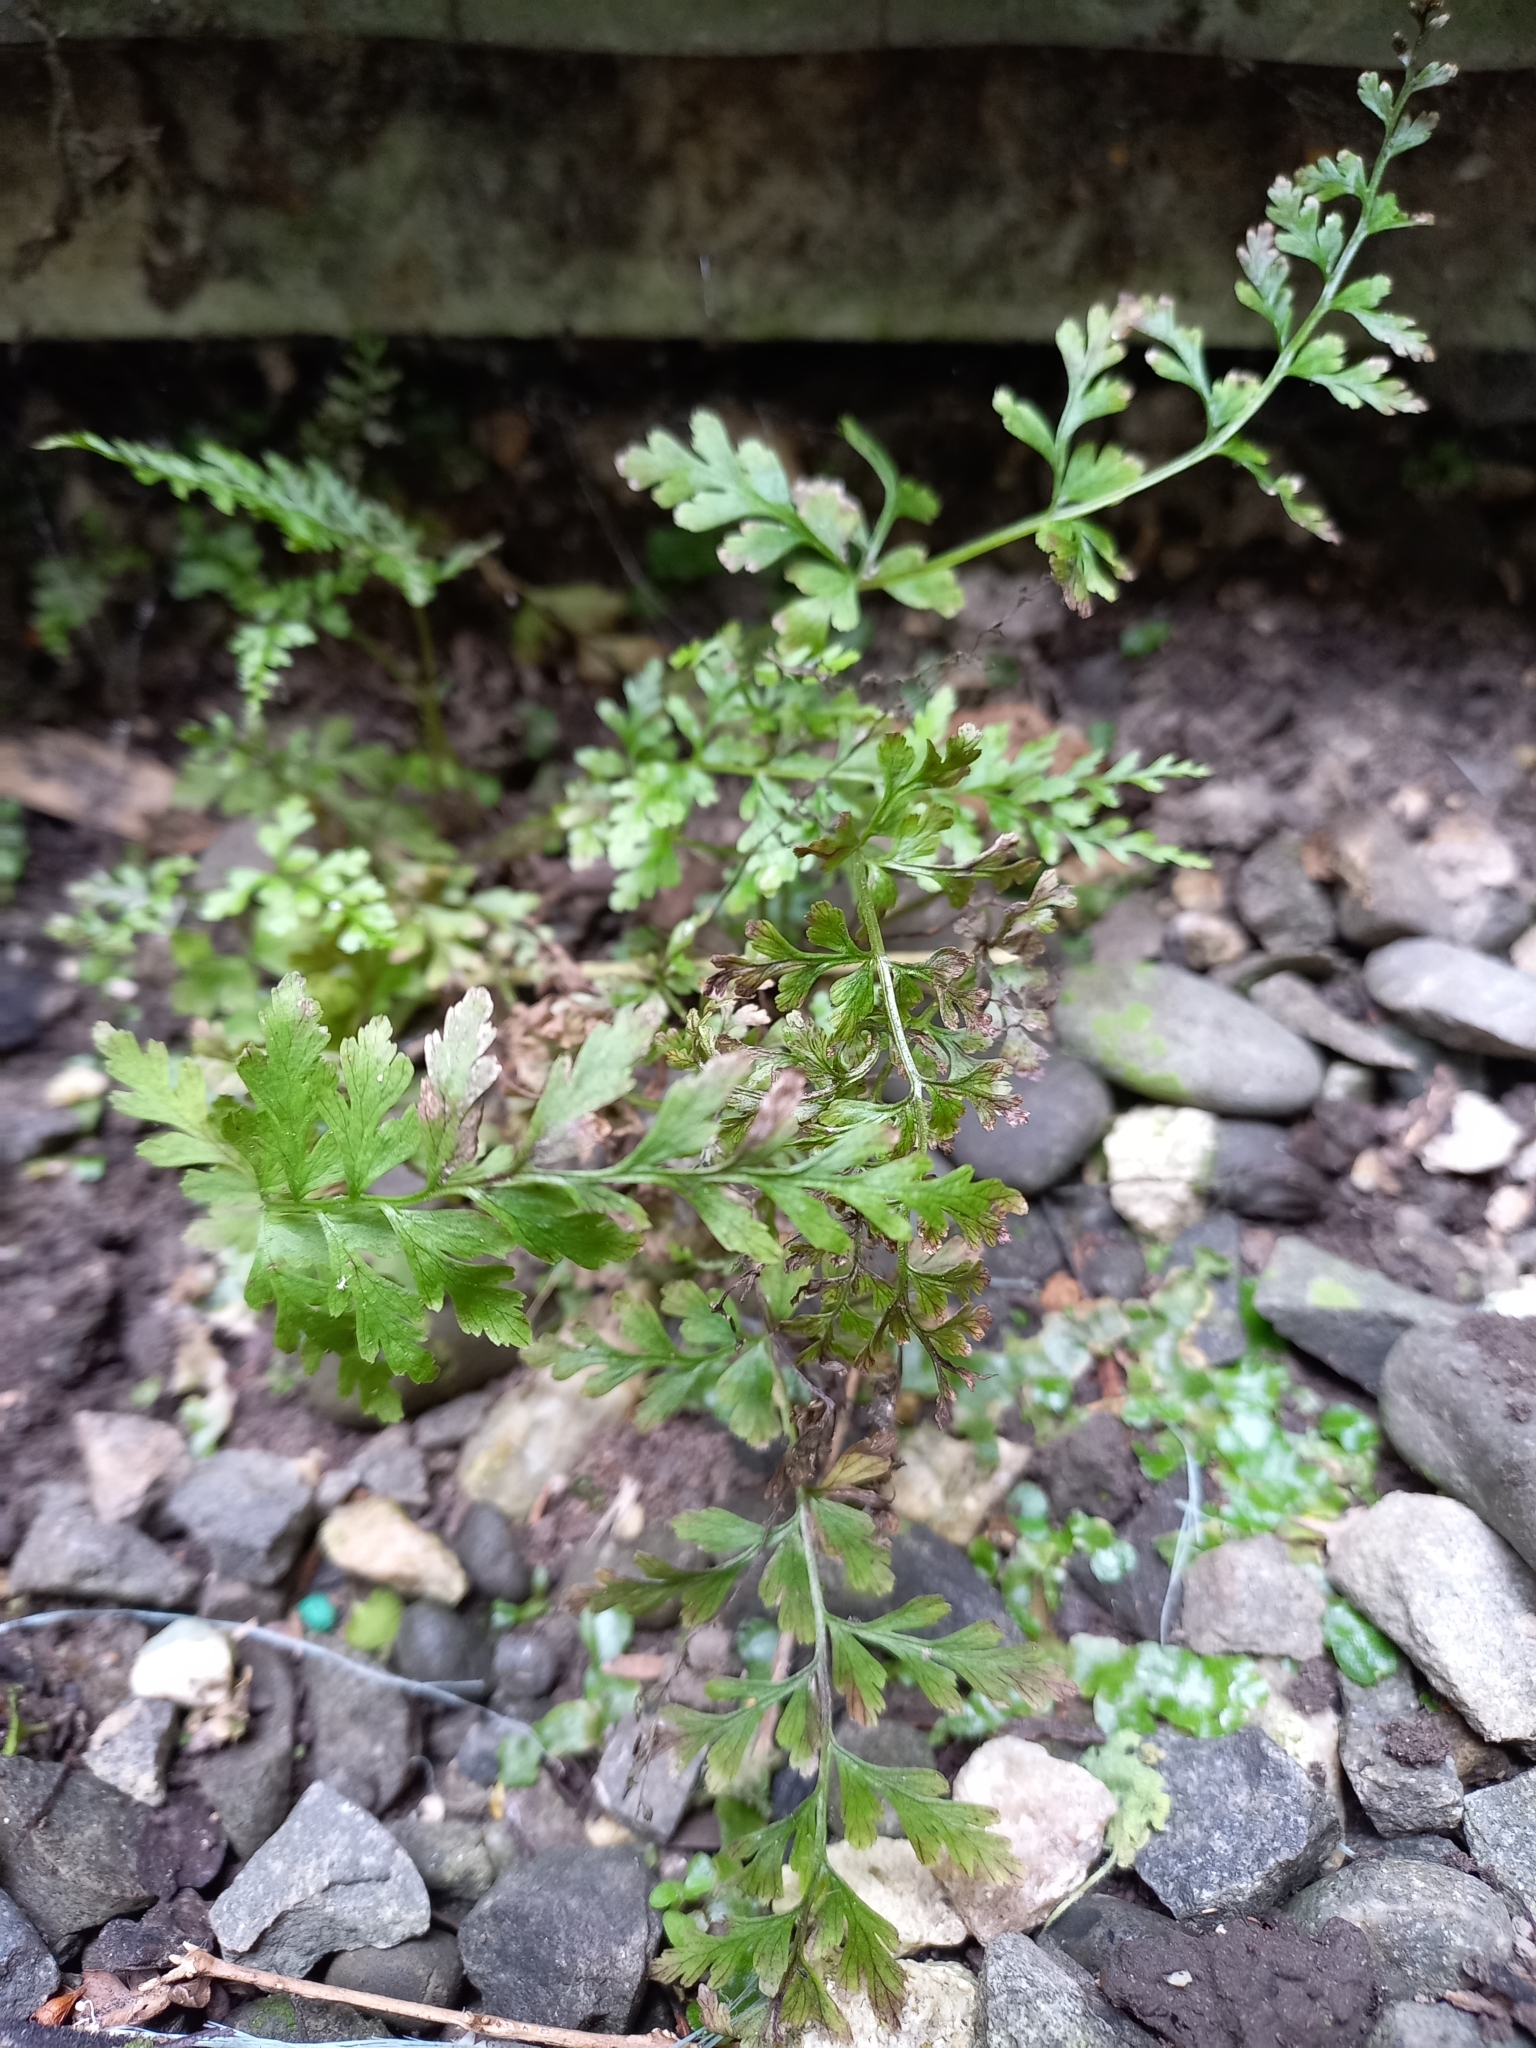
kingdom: Plantae
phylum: Tracheophyta
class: Polypodiopsida
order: Polypodiales
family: Cystopteridaceae
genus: Cystopteris
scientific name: Cystopteris fragilis
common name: Brittle bladder fern
